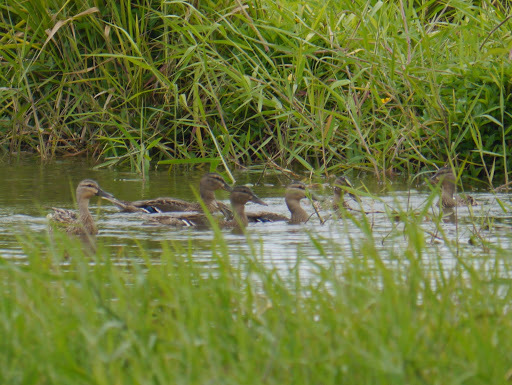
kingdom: Animalia
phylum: Chordata
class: Aves
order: Anseriformes
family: Anatidae
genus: Anas
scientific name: Anas
